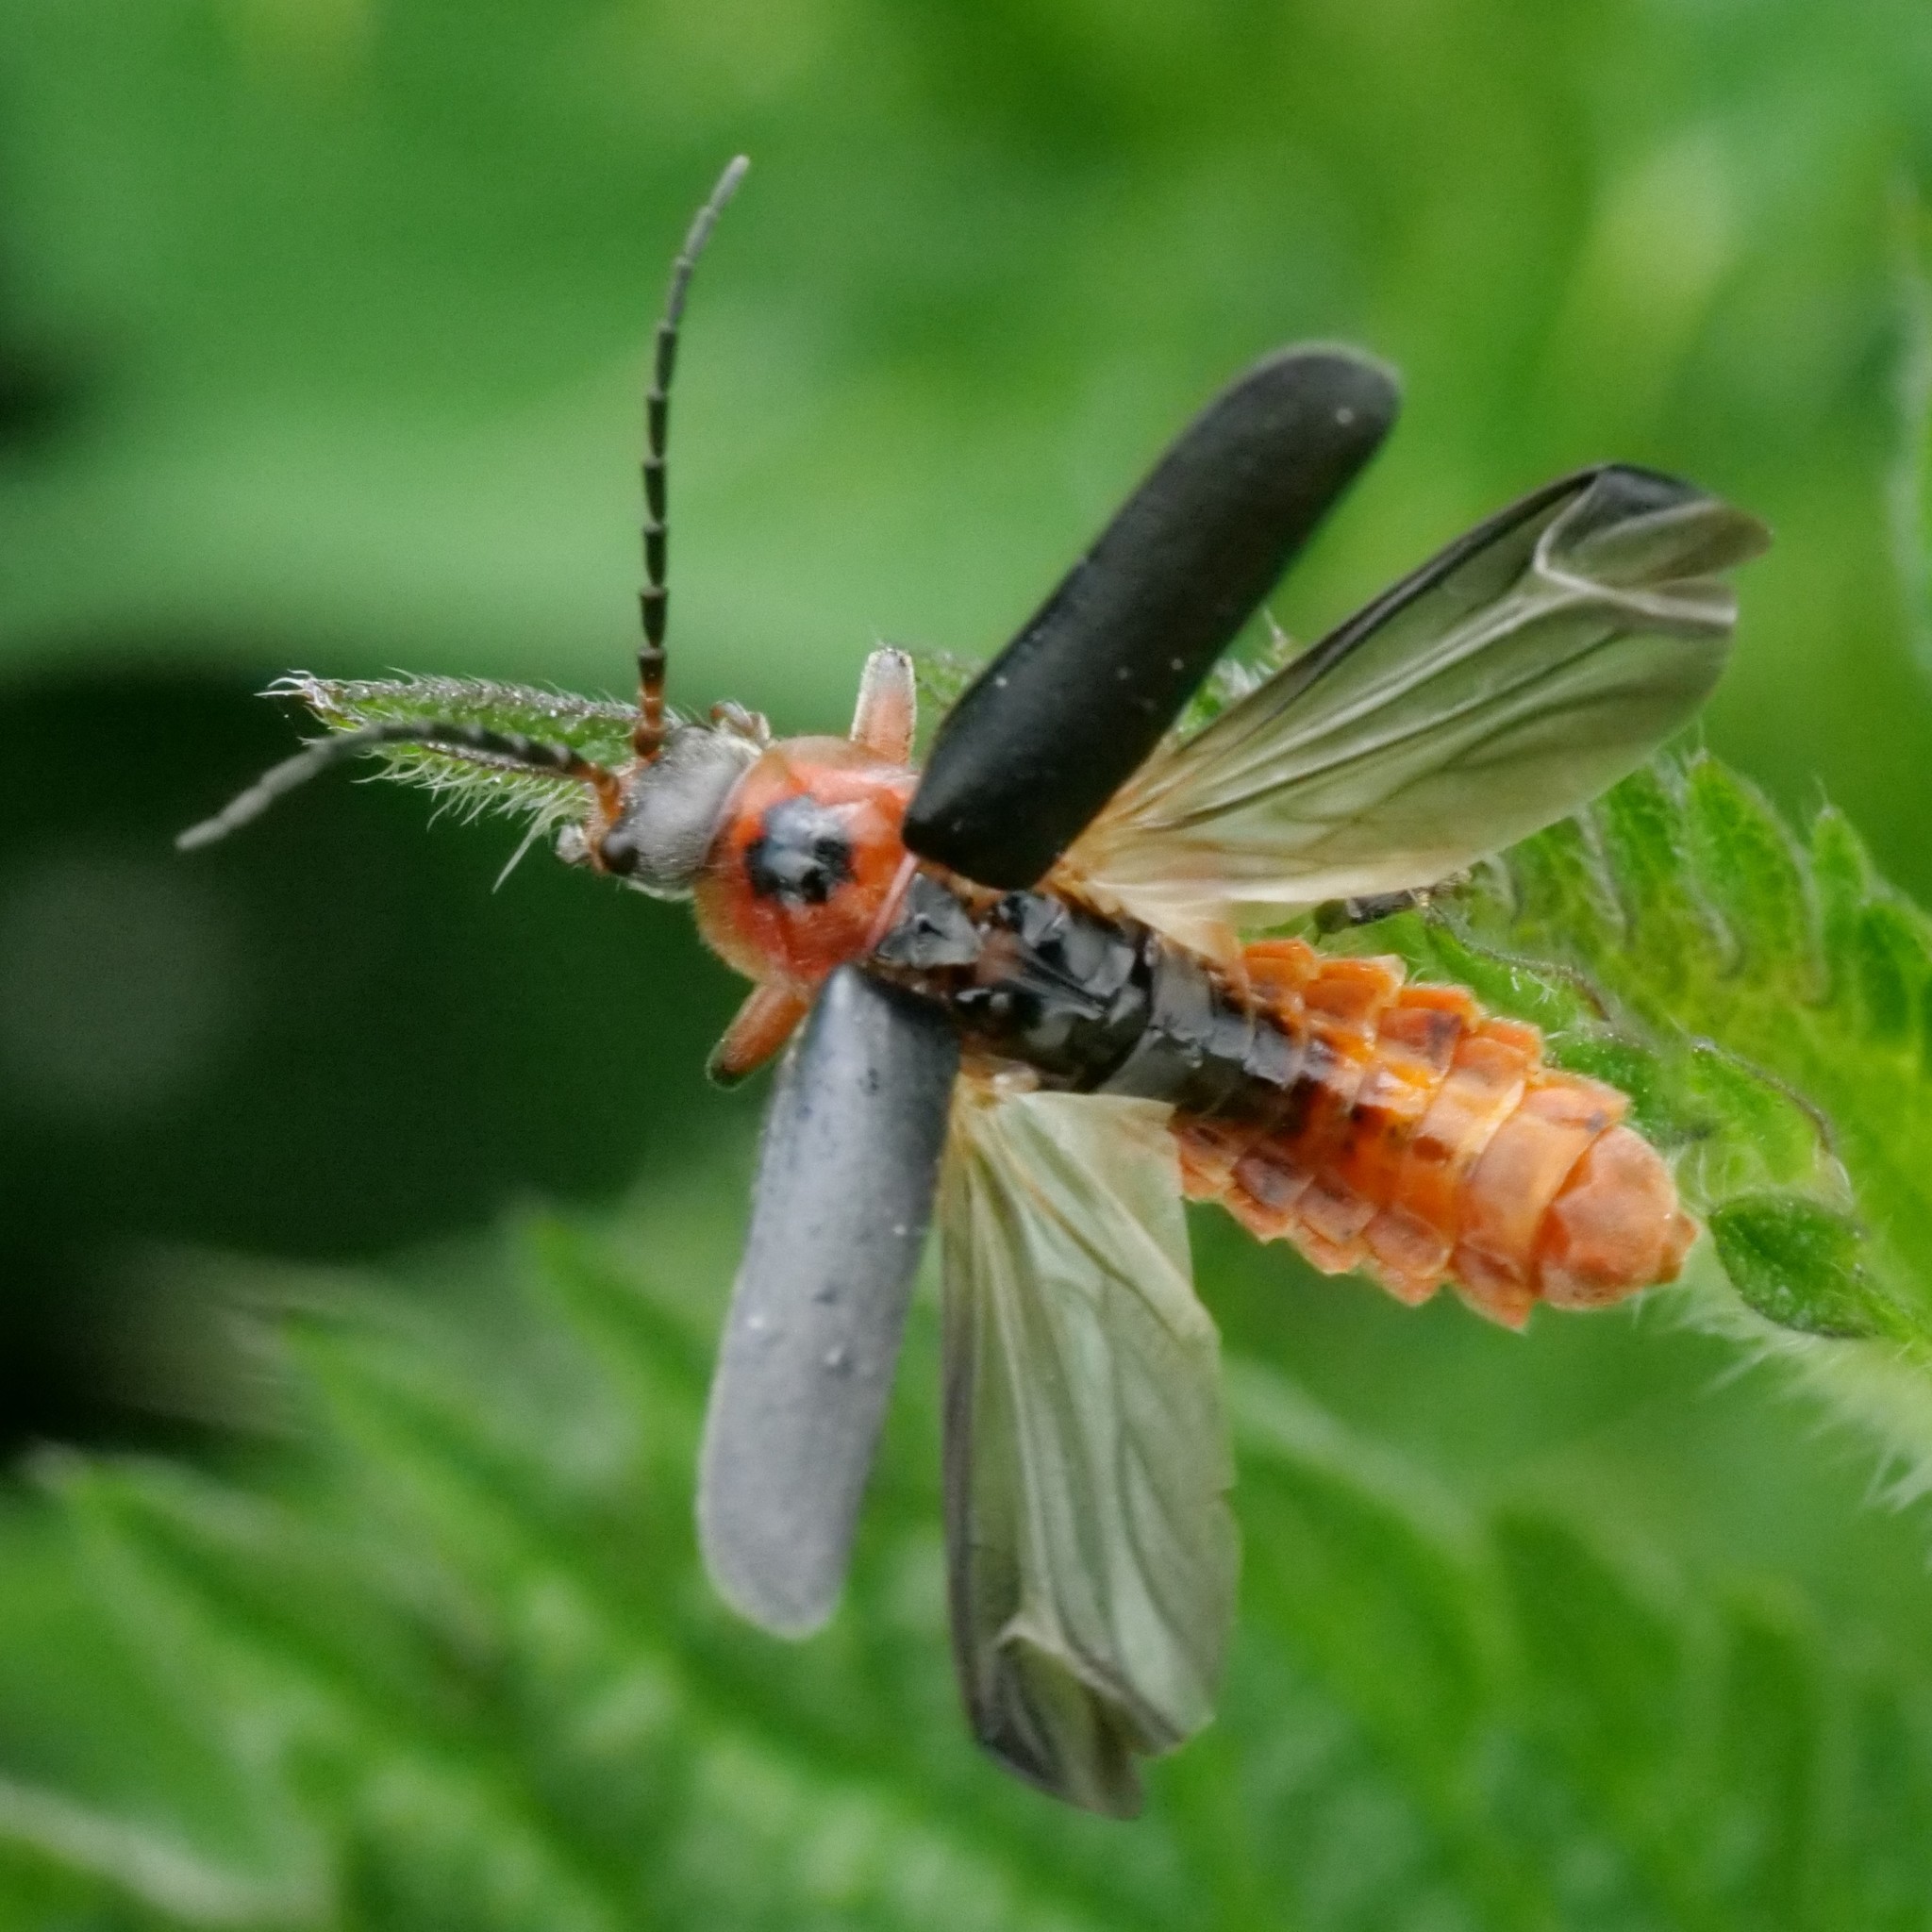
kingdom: Animalia
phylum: Arthropoda
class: Insecta
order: Coleoptera
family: Cantharidae
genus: Cantharis
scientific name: Cantharis rustica
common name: Soldier beetle
